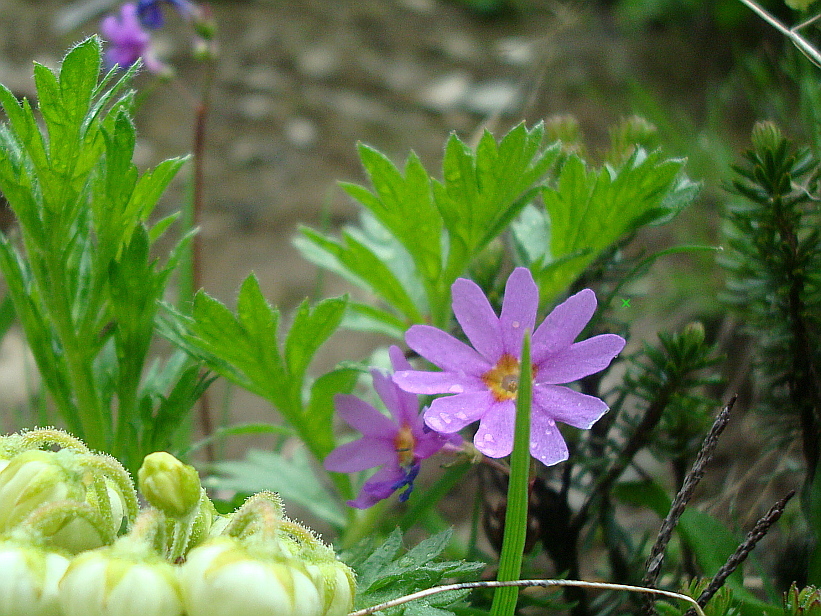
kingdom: Plantae
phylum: Tracheophyta
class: Magnoliopsida
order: Ericales
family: Primulaceae
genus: Primula
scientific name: Primula cuneifolia
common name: Wedge-leaved primrose
